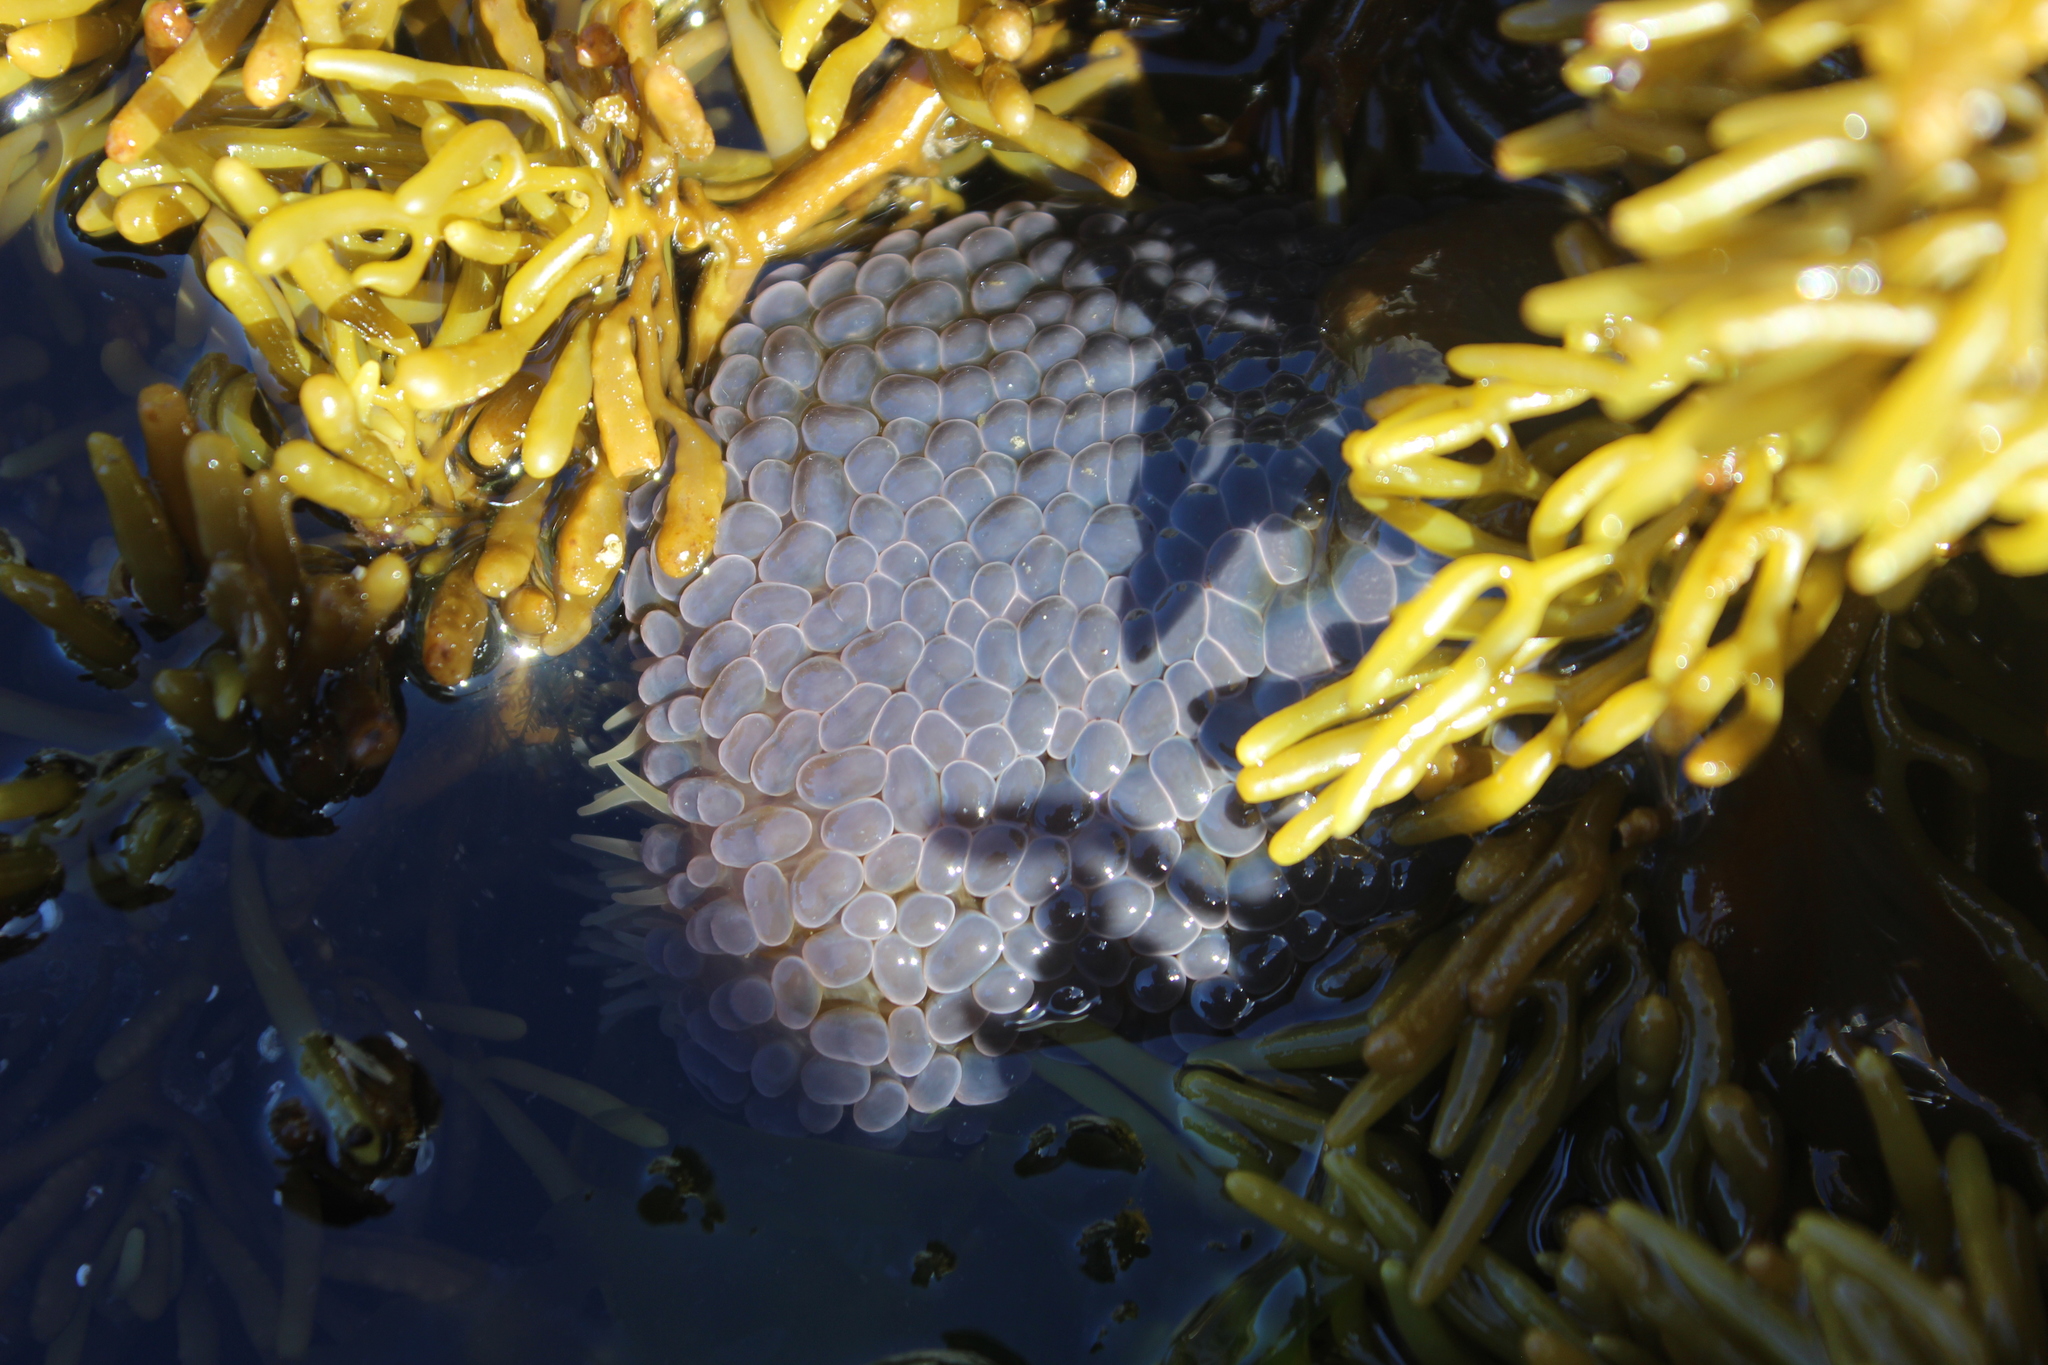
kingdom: Animalia
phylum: Cnidaria
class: Anthozoa
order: Actiniaria
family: Actiniidae
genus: Phlyctenactis
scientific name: Phlyctenactis tuberculosa
